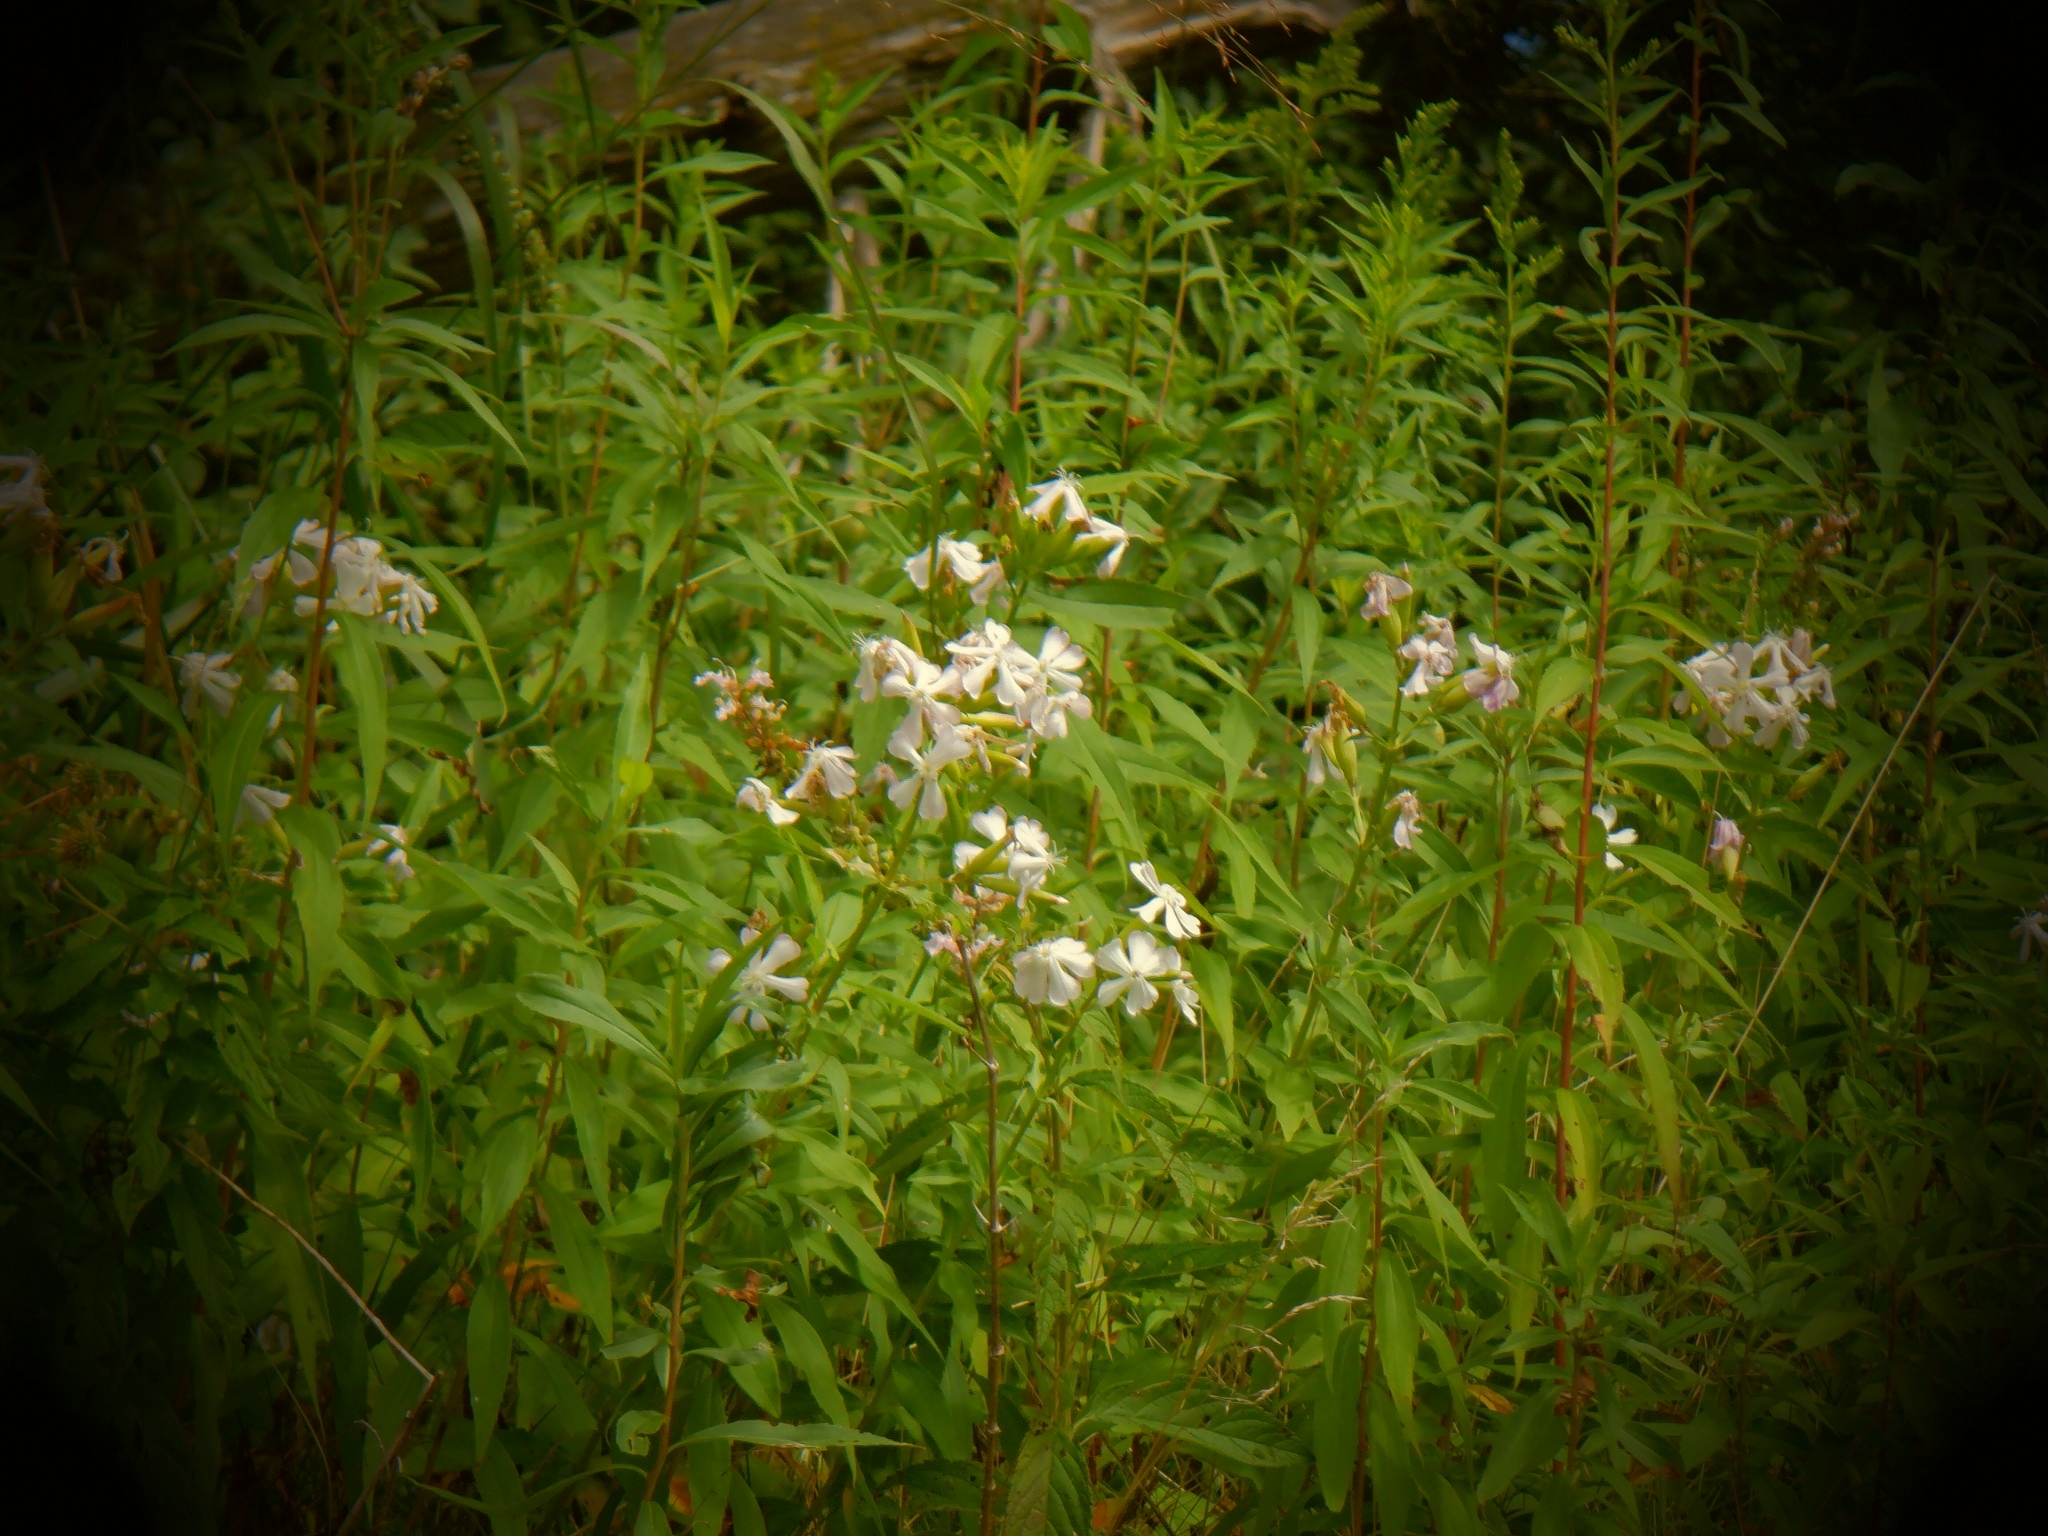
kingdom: Plantae
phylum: Tracheophyta
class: Magnoliopsida
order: Caryophyllales
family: Caryophyllaceae
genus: Saponaria
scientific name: Saponaria officinalis
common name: Soapwort
